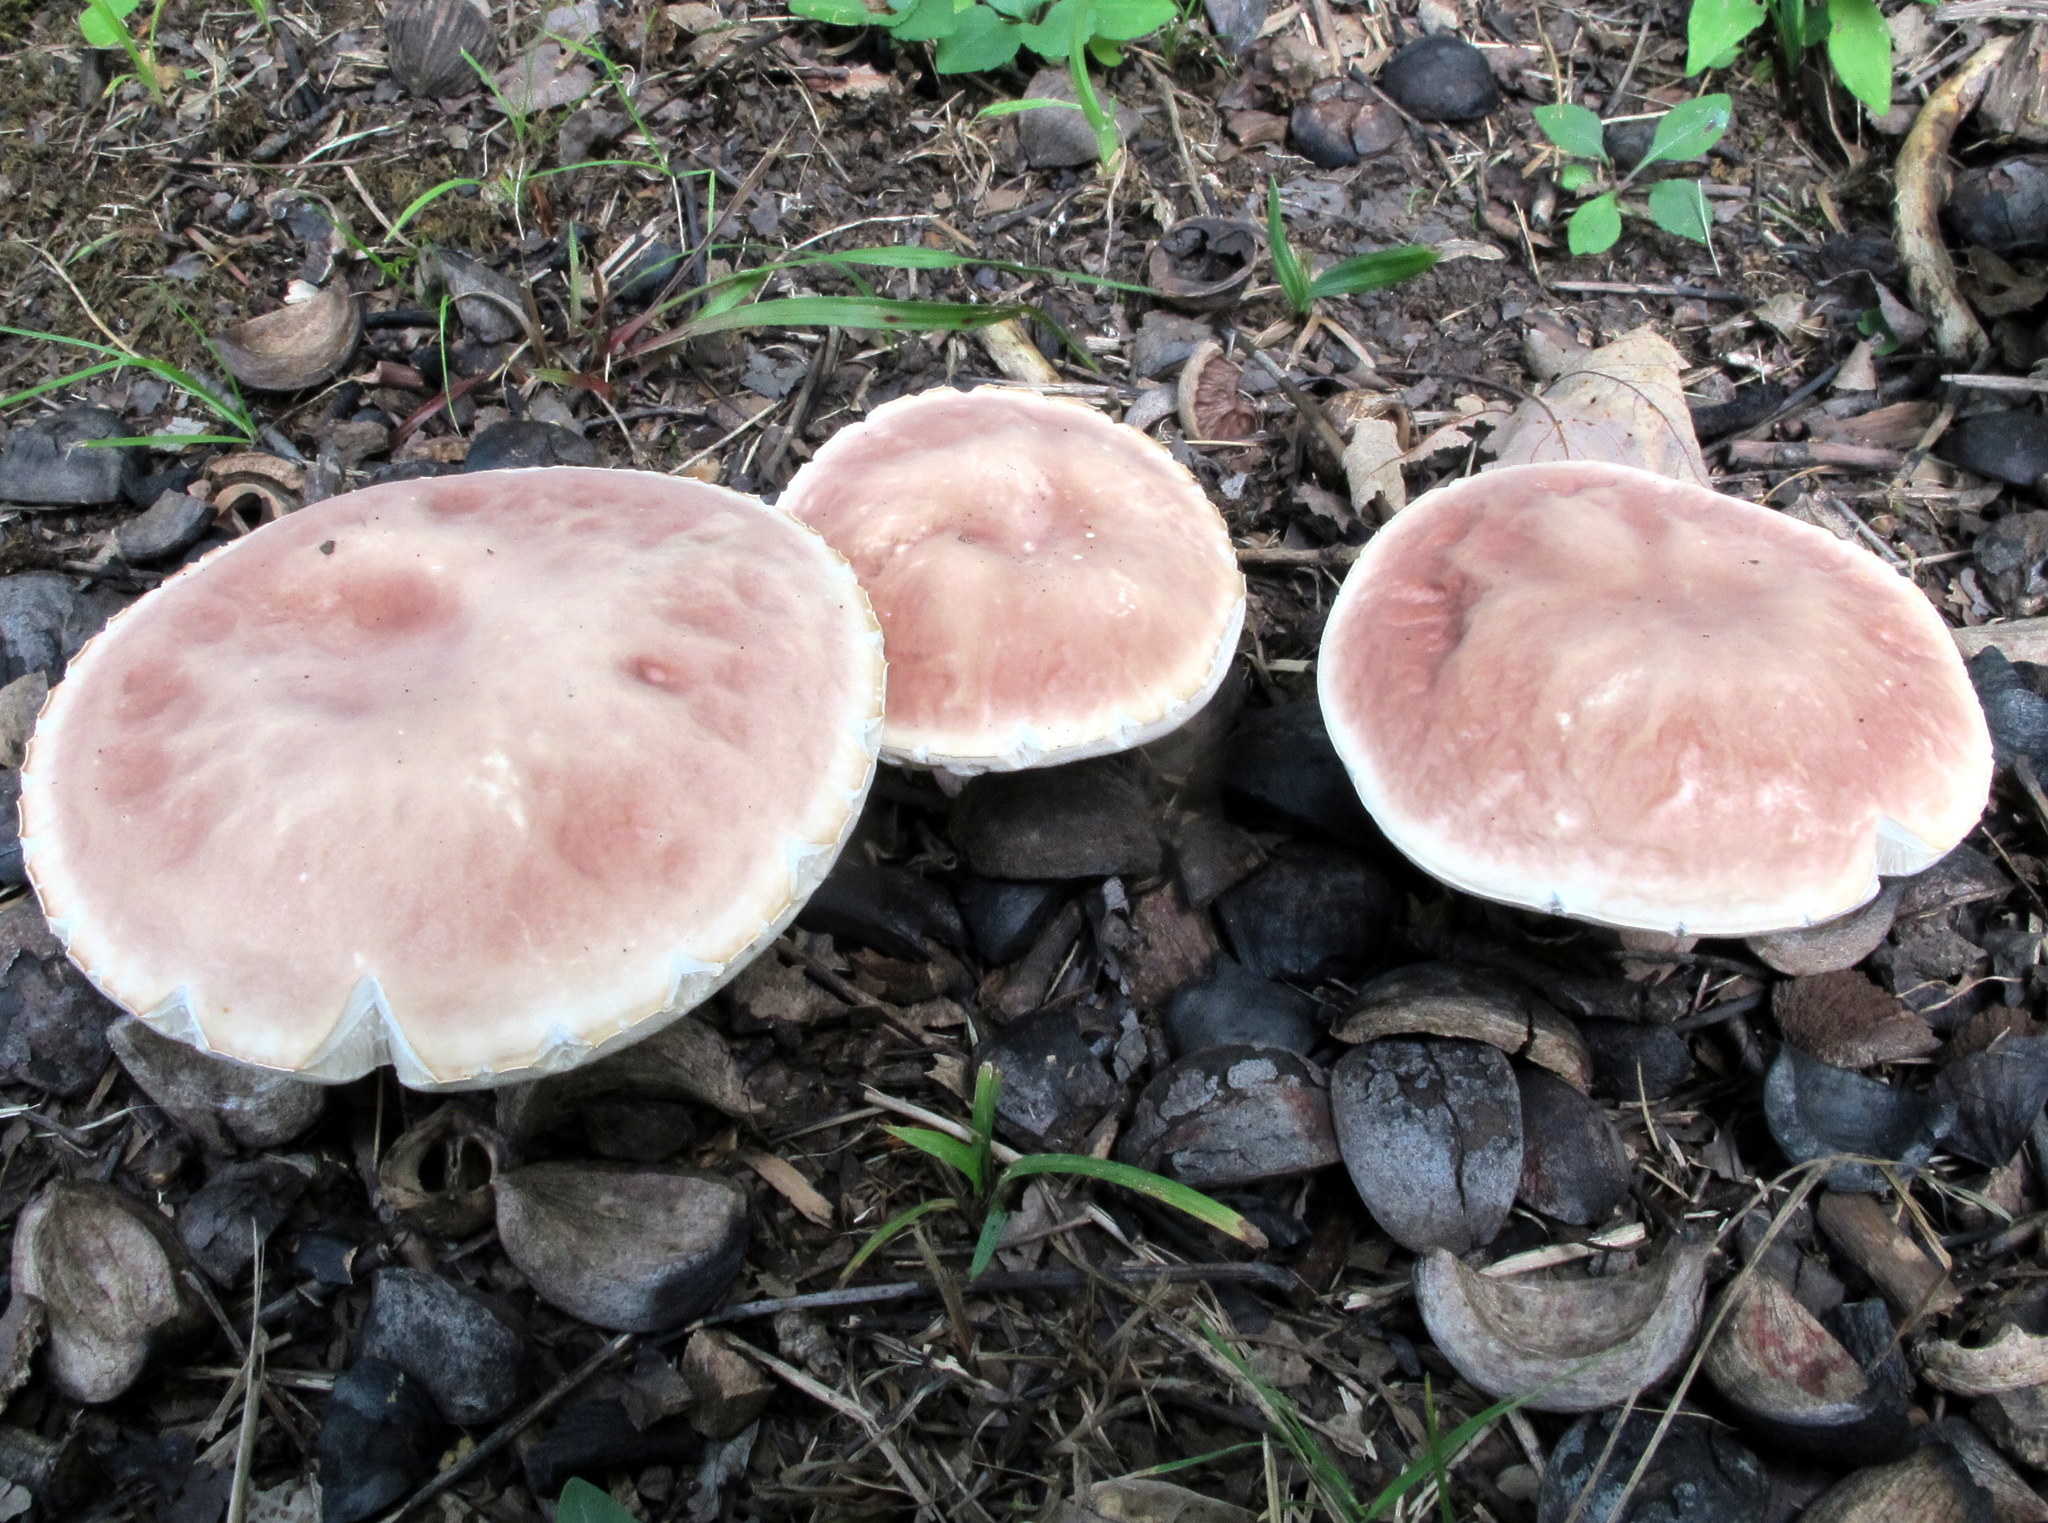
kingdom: Fungi
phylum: Basidiomycota
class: Agaricomycetes
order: Boletales
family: Boletaceae
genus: Xanthoconium
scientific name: Xanthoconium separans
